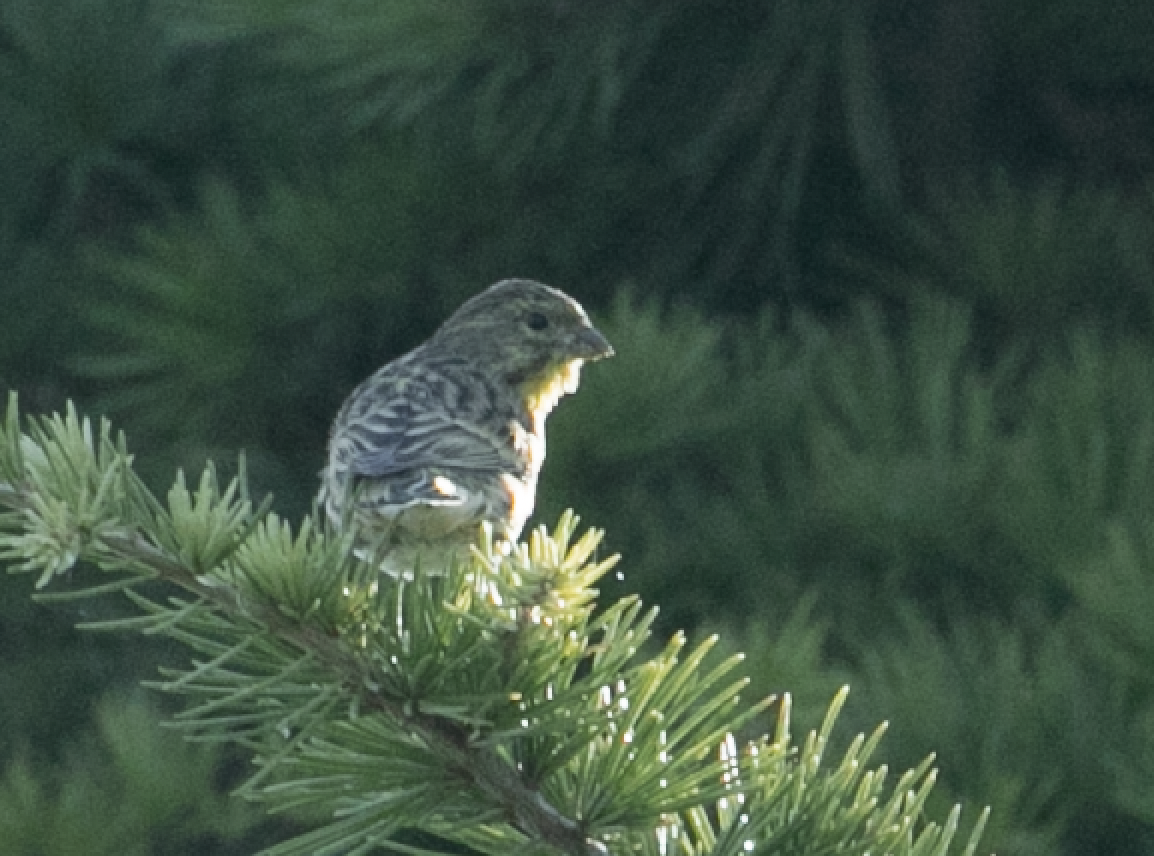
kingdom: Animalia
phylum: Chordata
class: Aves
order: Passeriformes
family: Fringillidae
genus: Serinus
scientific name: Serinus serinus
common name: European serin
